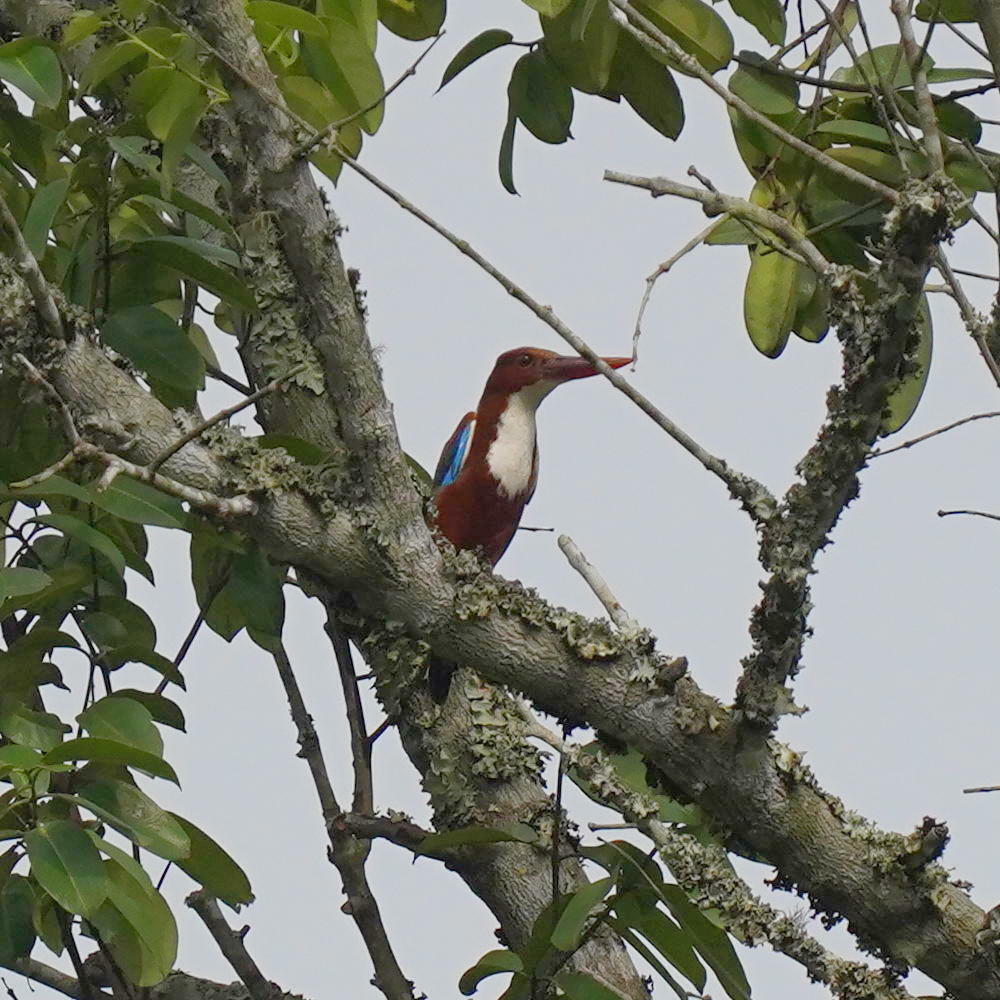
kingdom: Animalia
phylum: Chordata
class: Aves
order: Coraciiformes
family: Alcedinidae
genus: Halcyon
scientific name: Halcyon smyrnensis
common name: White-throated kingfisher
